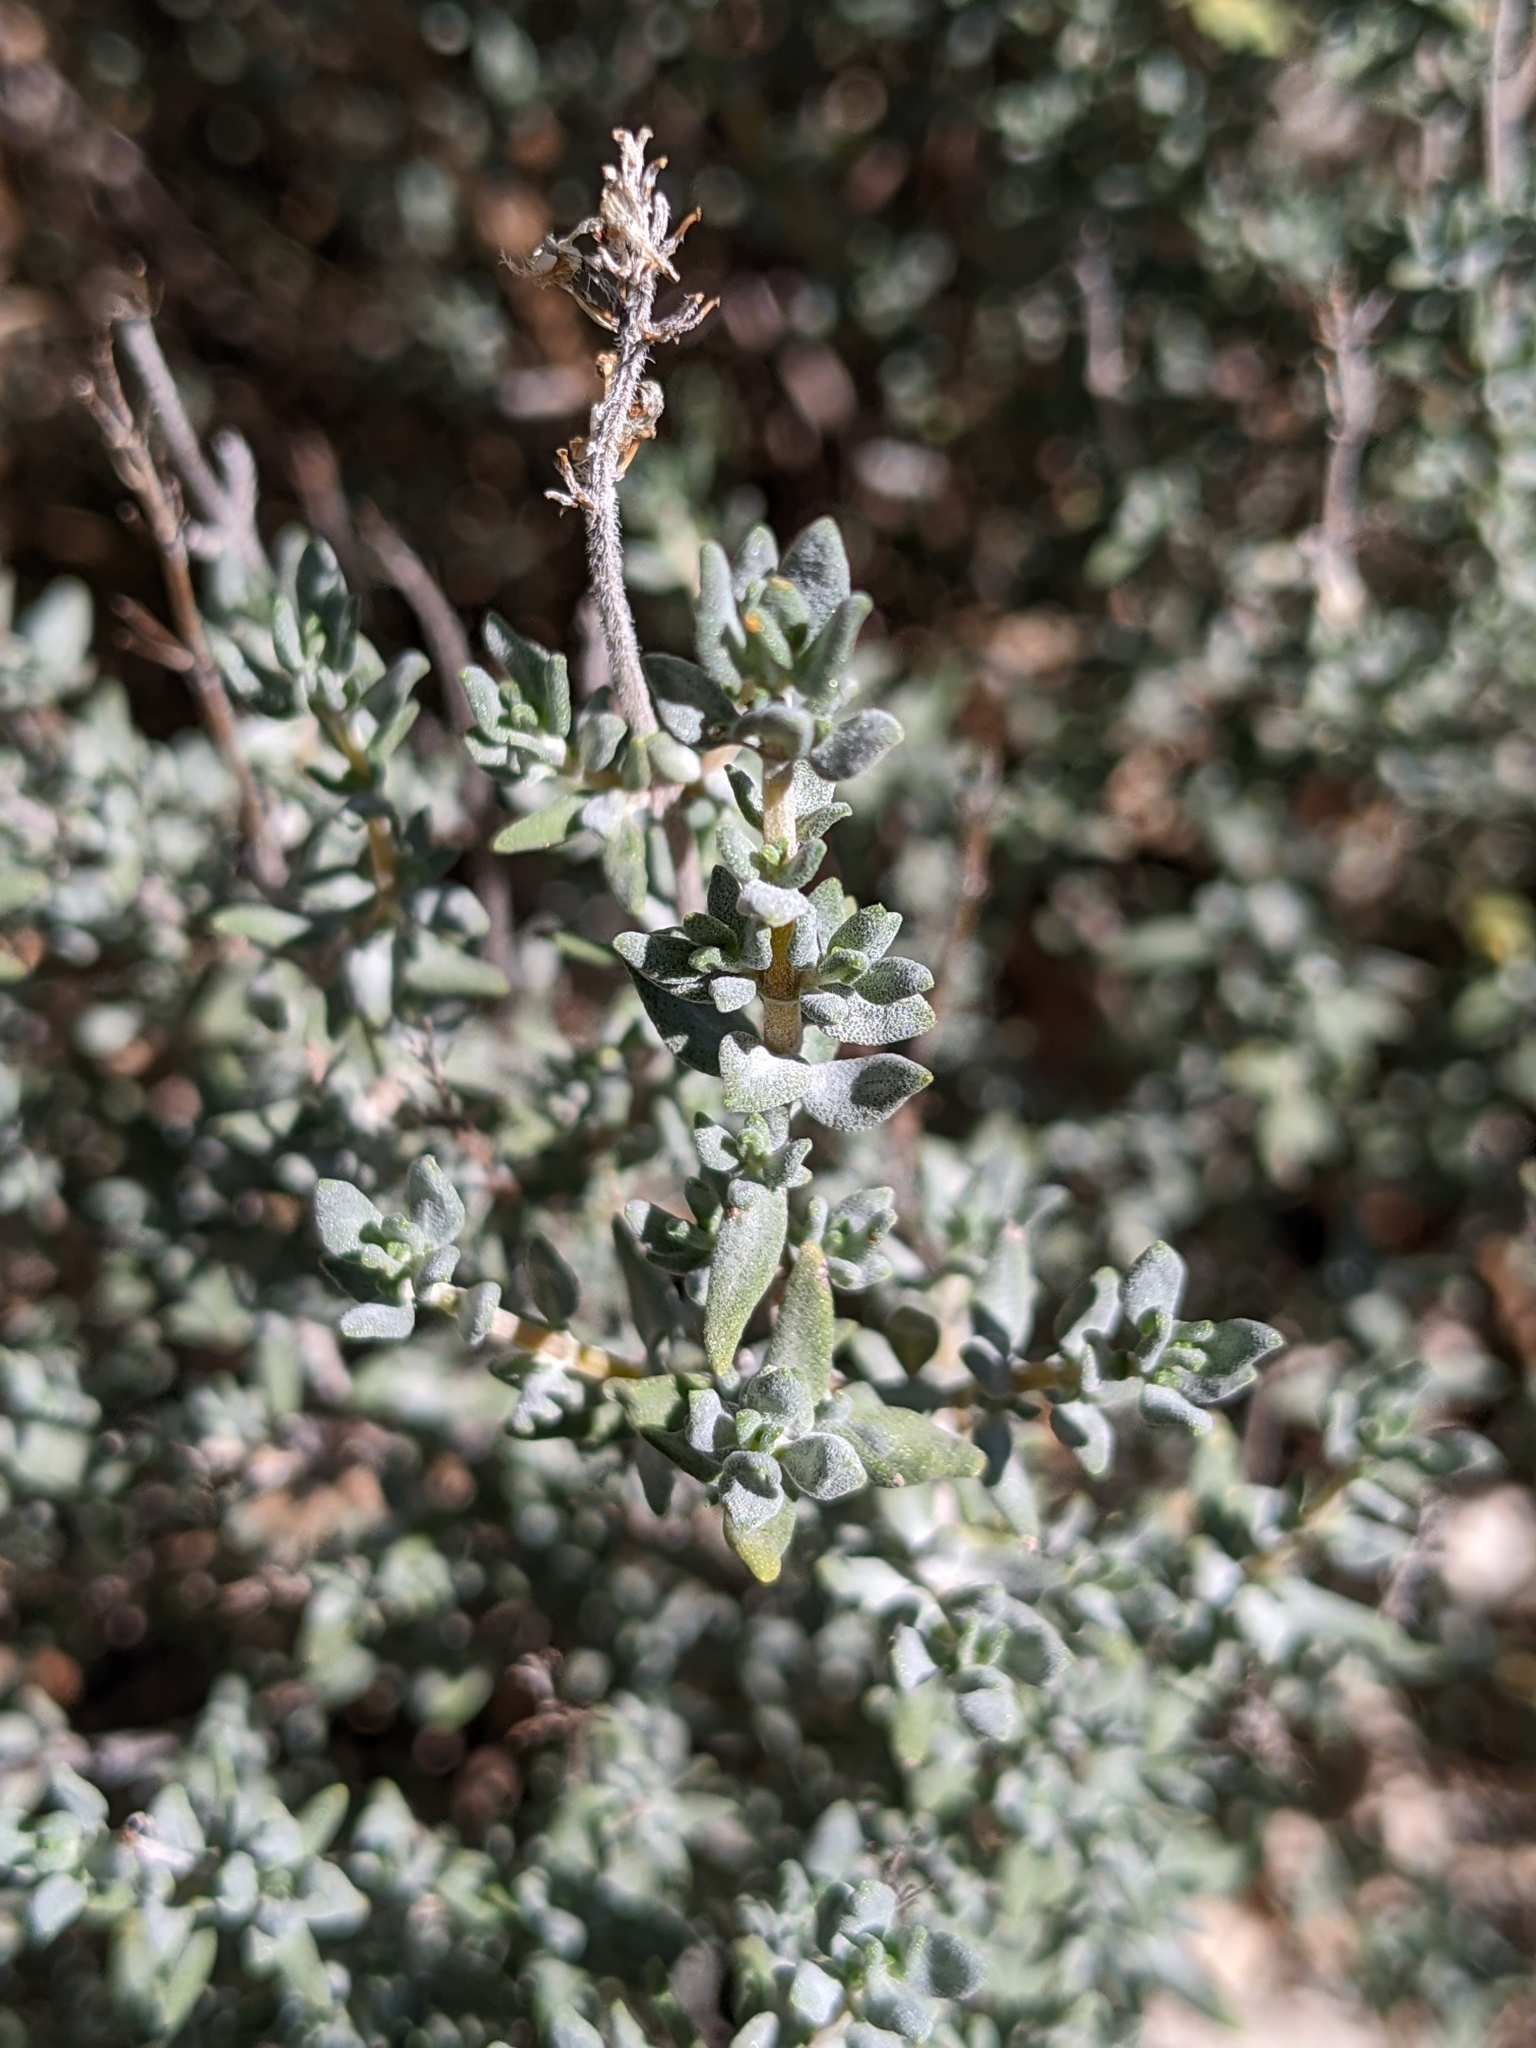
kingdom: Plantae
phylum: Tracheophyta
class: Magnoliopsida
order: Lamiales
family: Lamiaceae
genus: Thymus
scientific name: Thymus vulgaris
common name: Garden thyme
